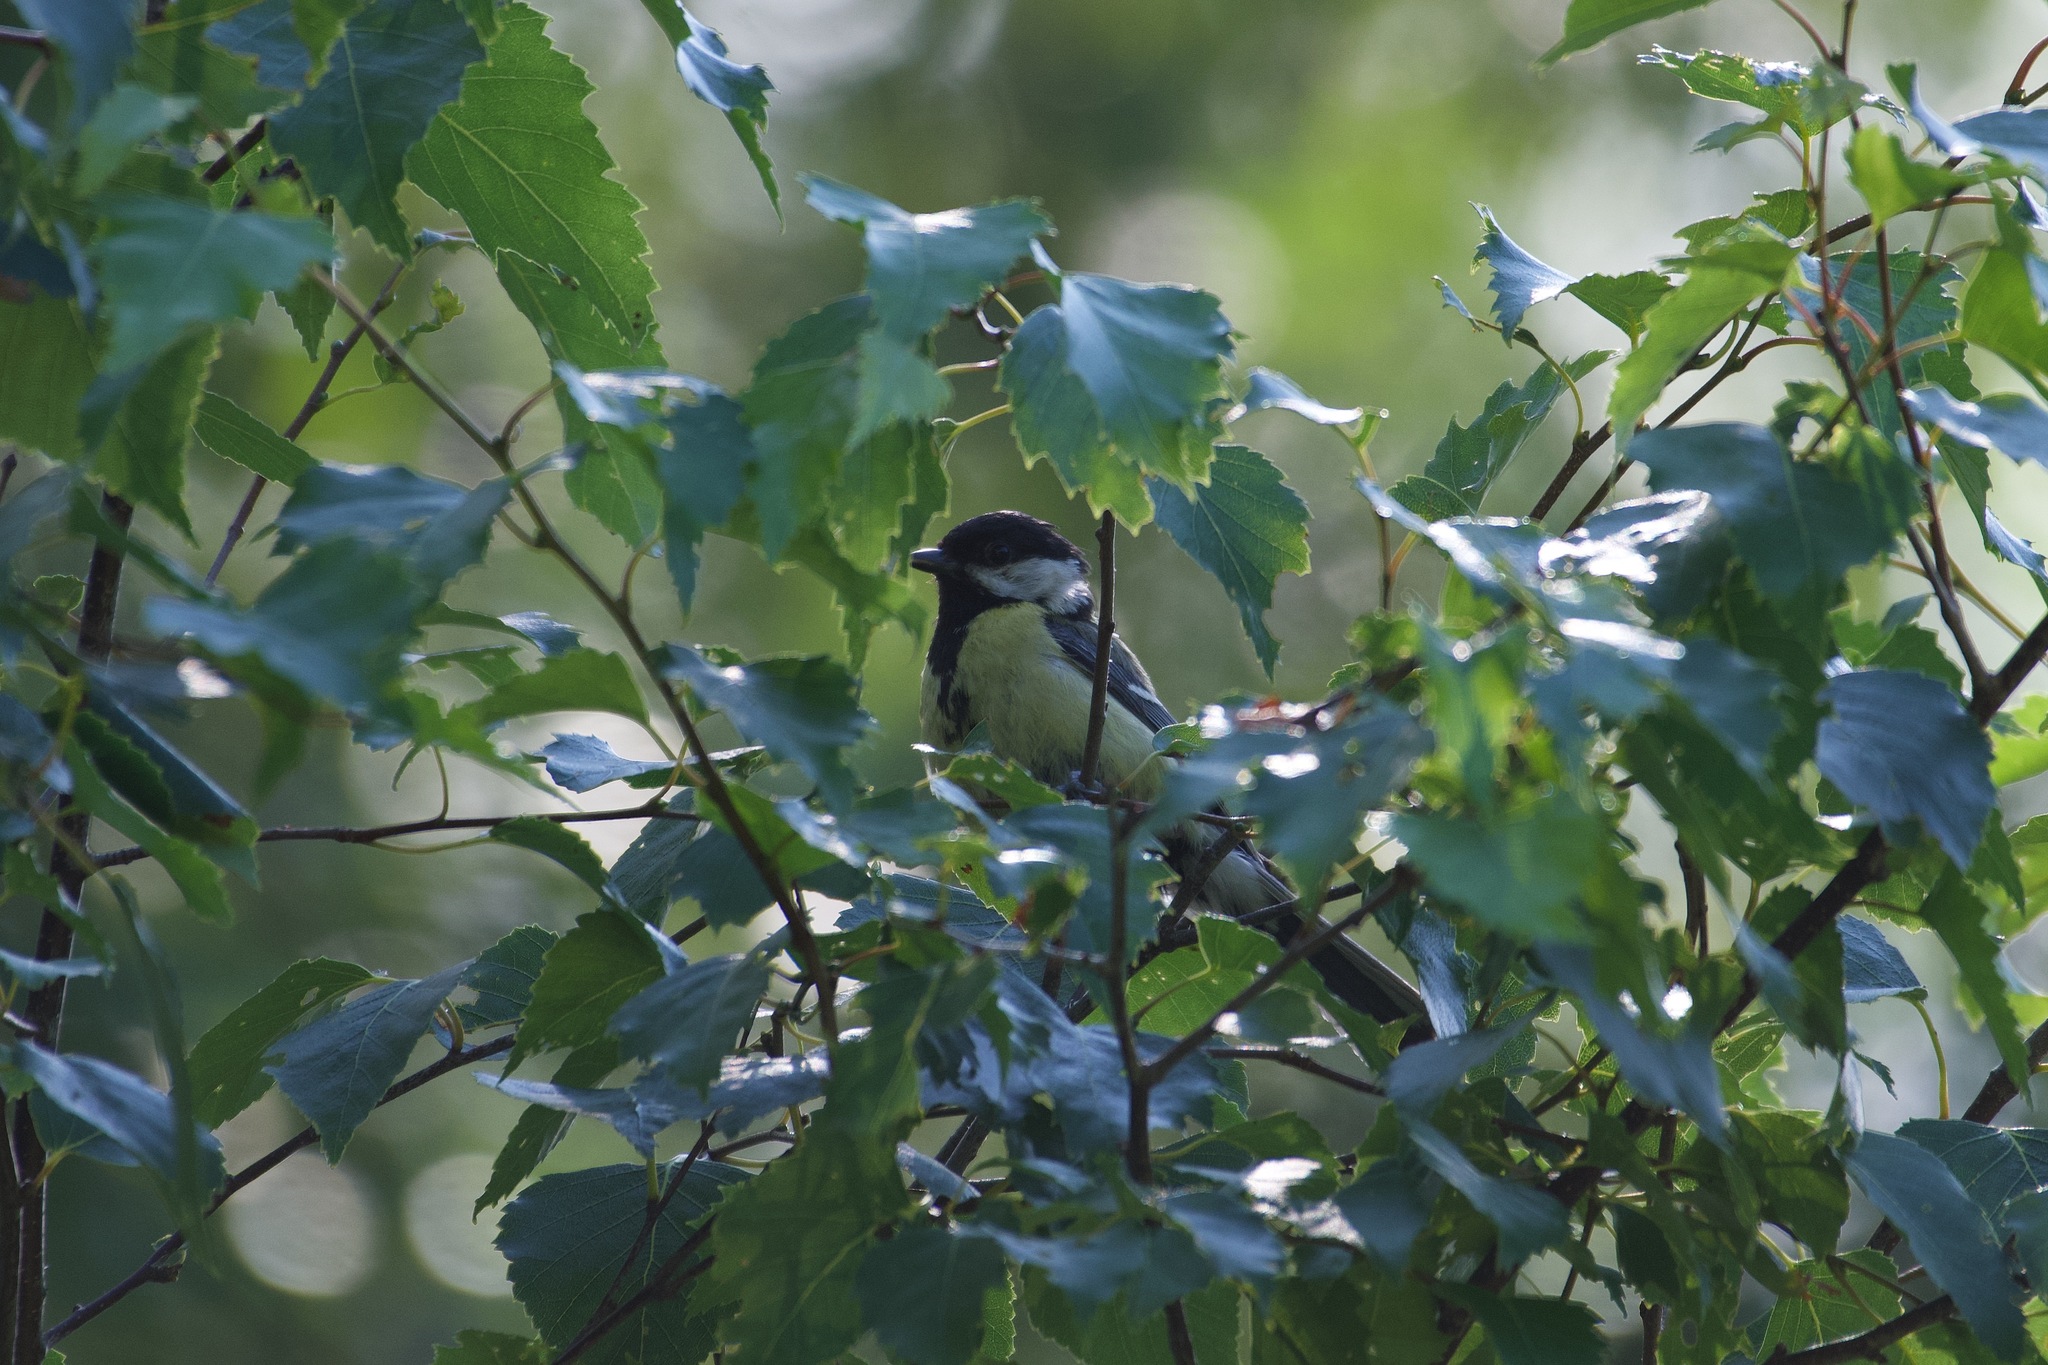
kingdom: Animalia
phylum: Chordata
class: Aves
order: Passeriformes
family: Paridae
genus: Parus
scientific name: Parus major
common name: Great tit
